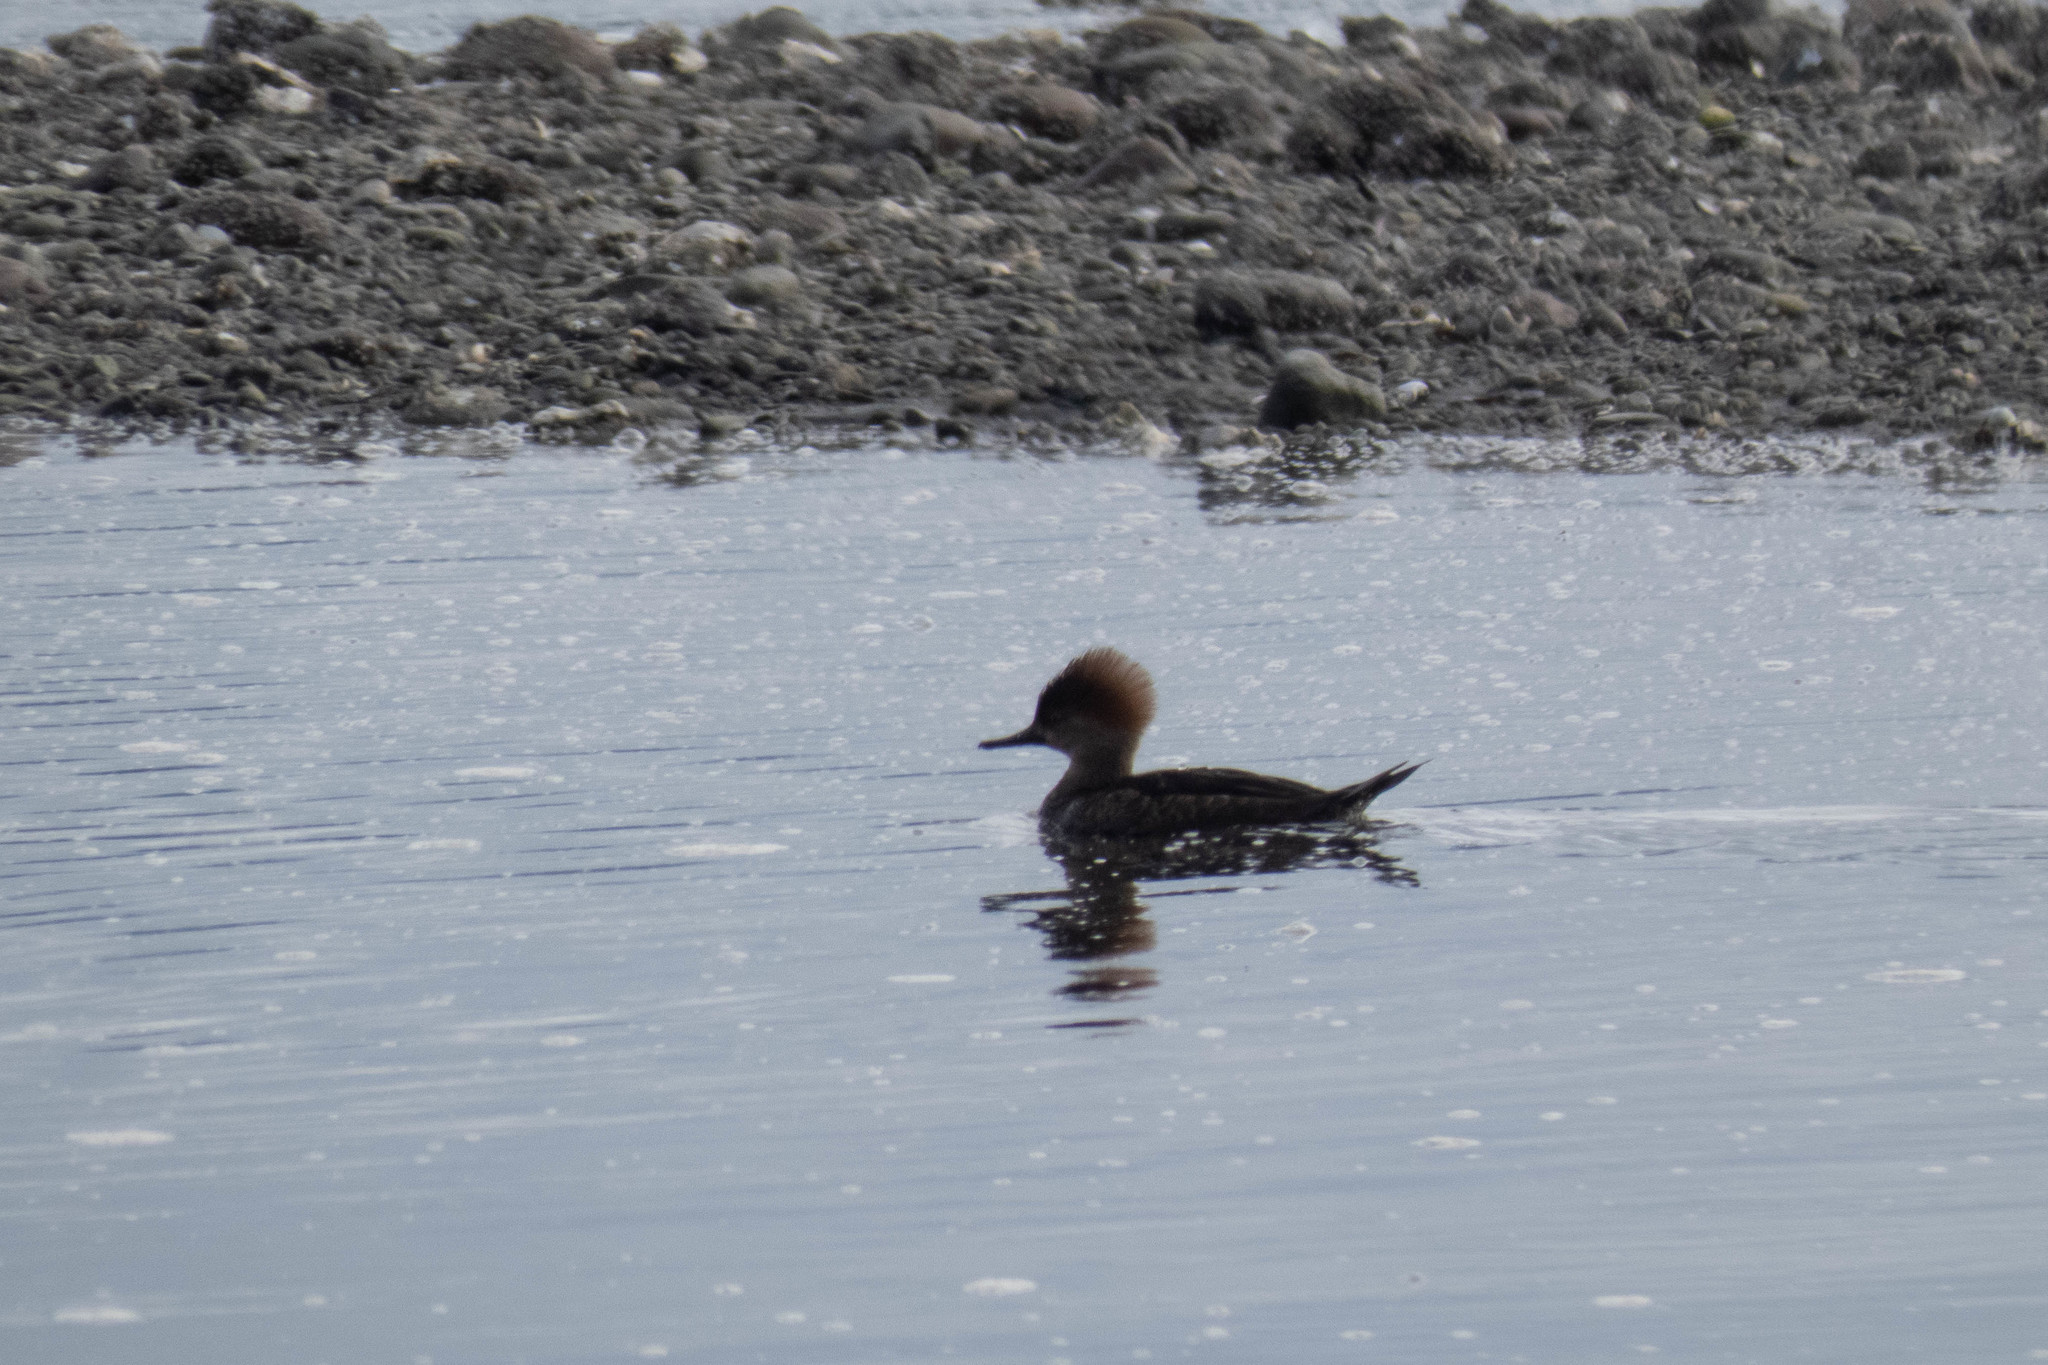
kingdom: Animalia
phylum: Chordata
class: Aves
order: Anseriformes
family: Anatidae
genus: Lophodytes
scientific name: Lophodytes cucullatus
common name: Hooded merganser
